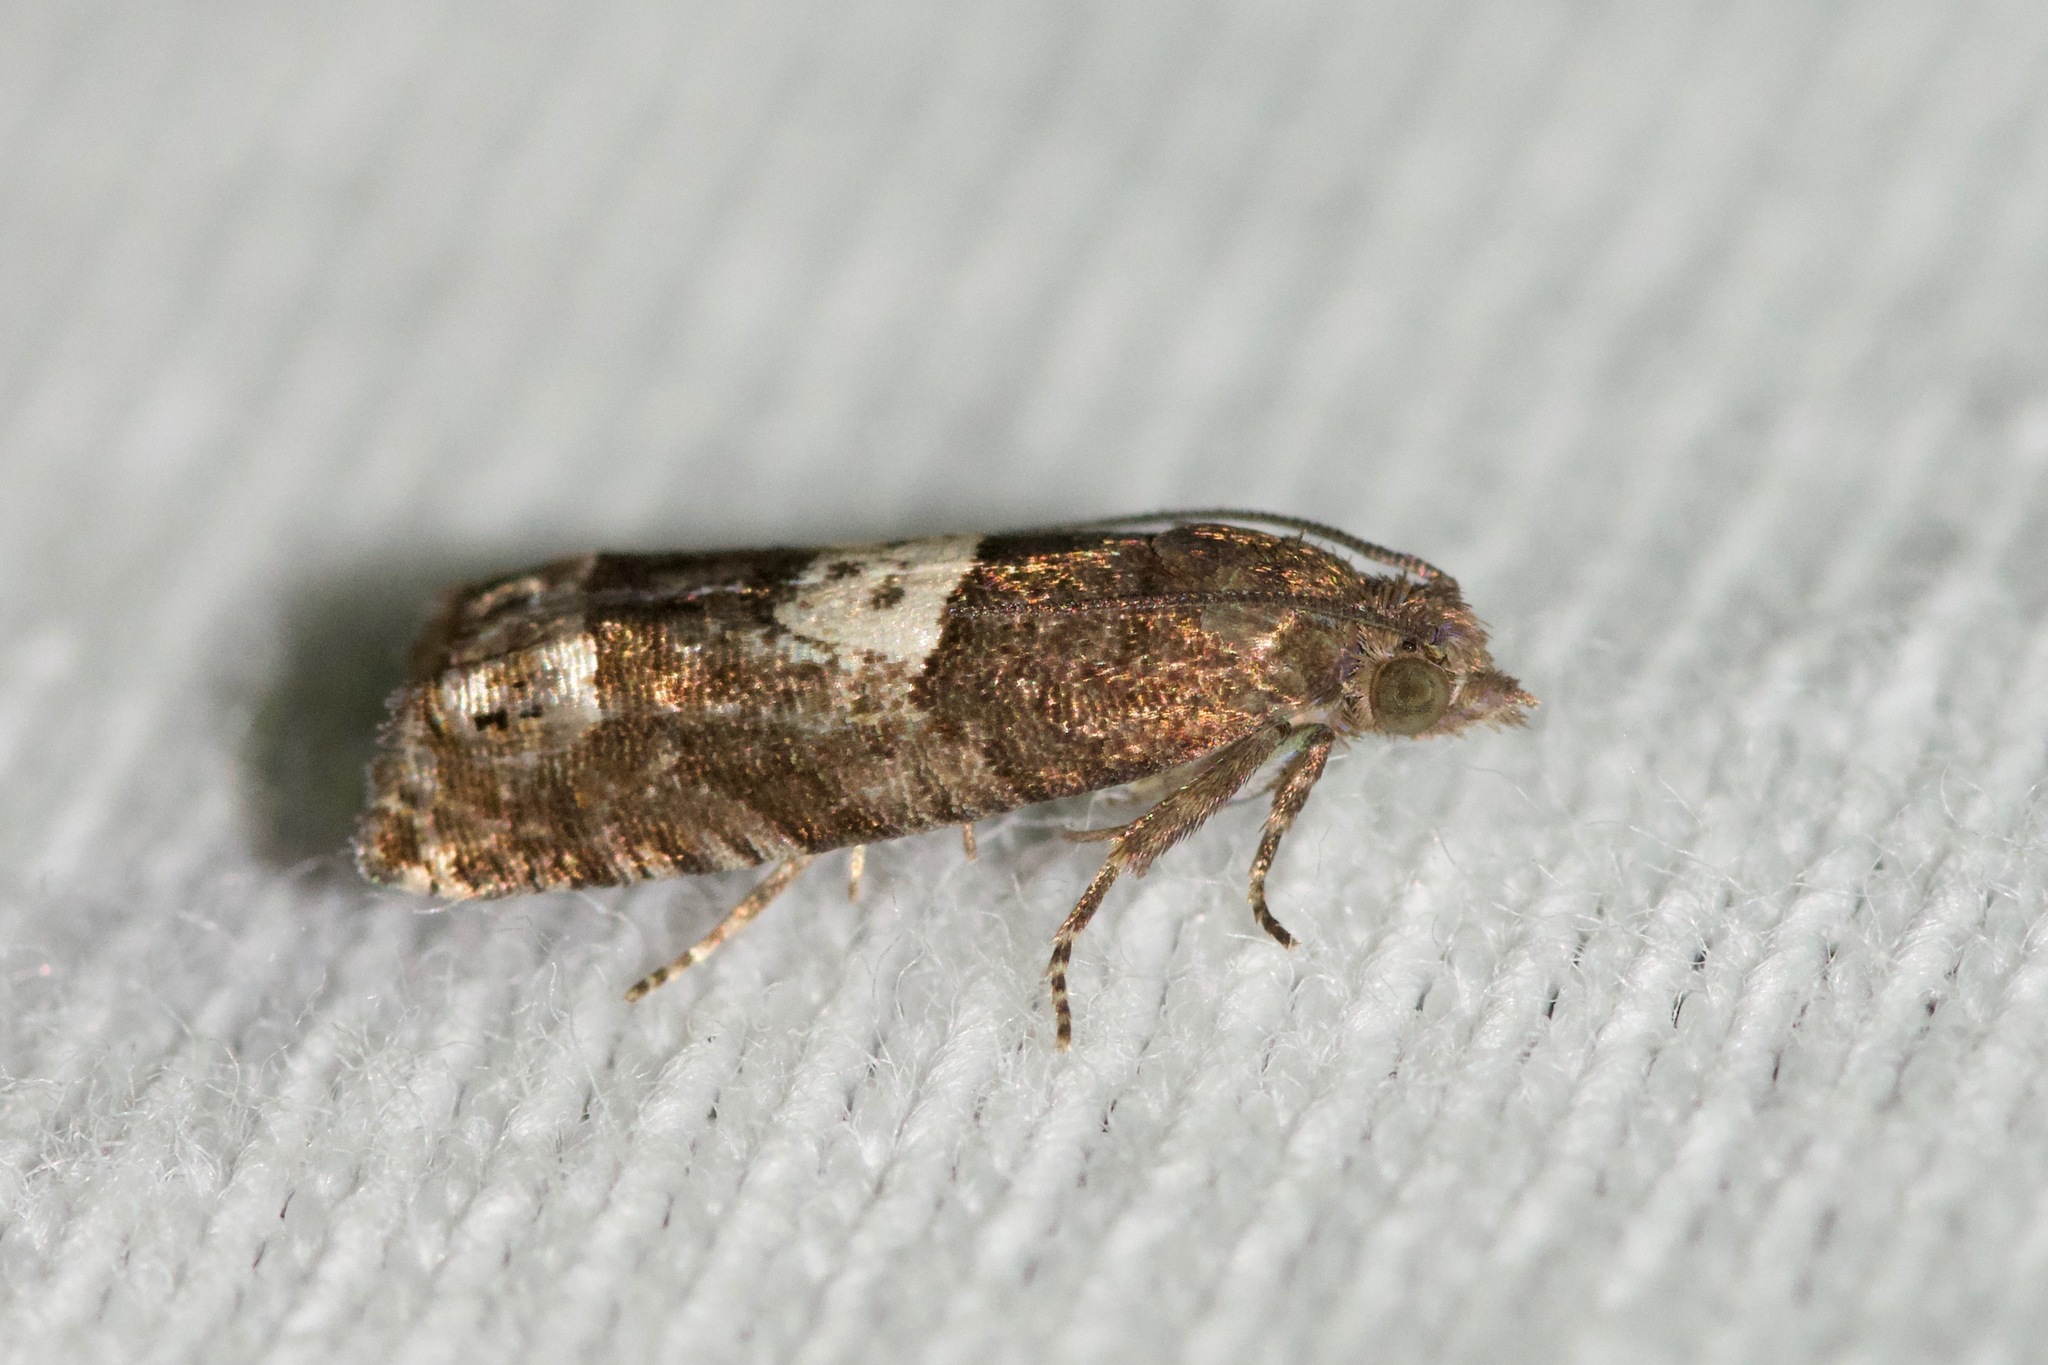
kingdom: Animalia
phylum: Arthropoda
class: Insecta
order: Lepidoptera
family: Tortricidae
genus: Eucosma
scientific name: Eucosma parmatana
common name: Aster eucosma moth
